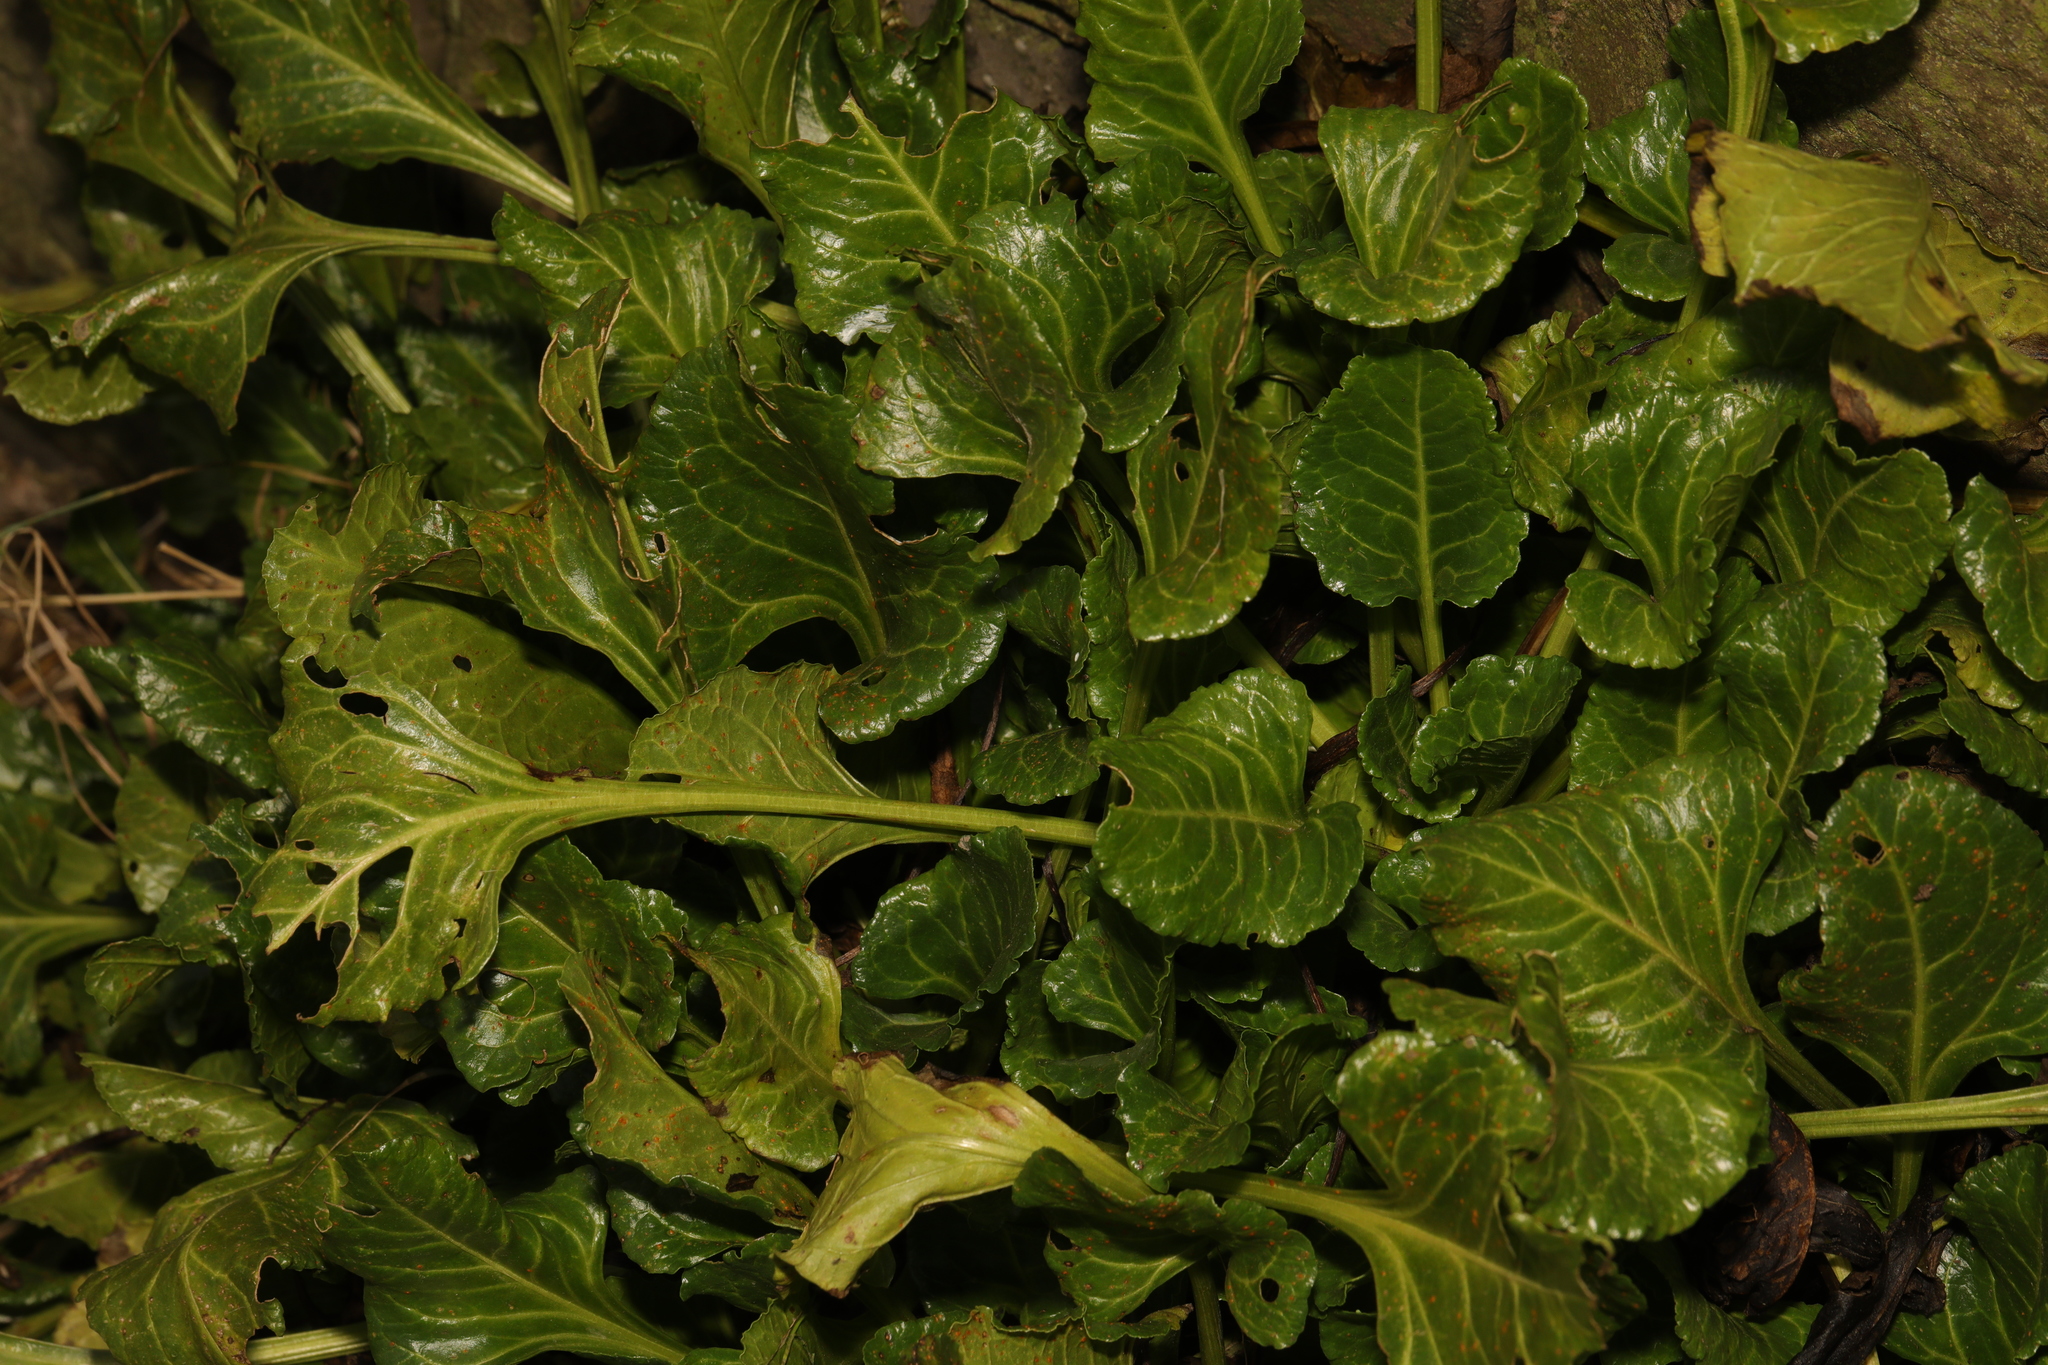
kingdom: Plantae
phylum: Tracheophyta
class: Magnoliopsida
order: Caryophyllales
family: Amaranthaceae
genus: Beta
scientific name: Beta vulgaris
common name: Beet
